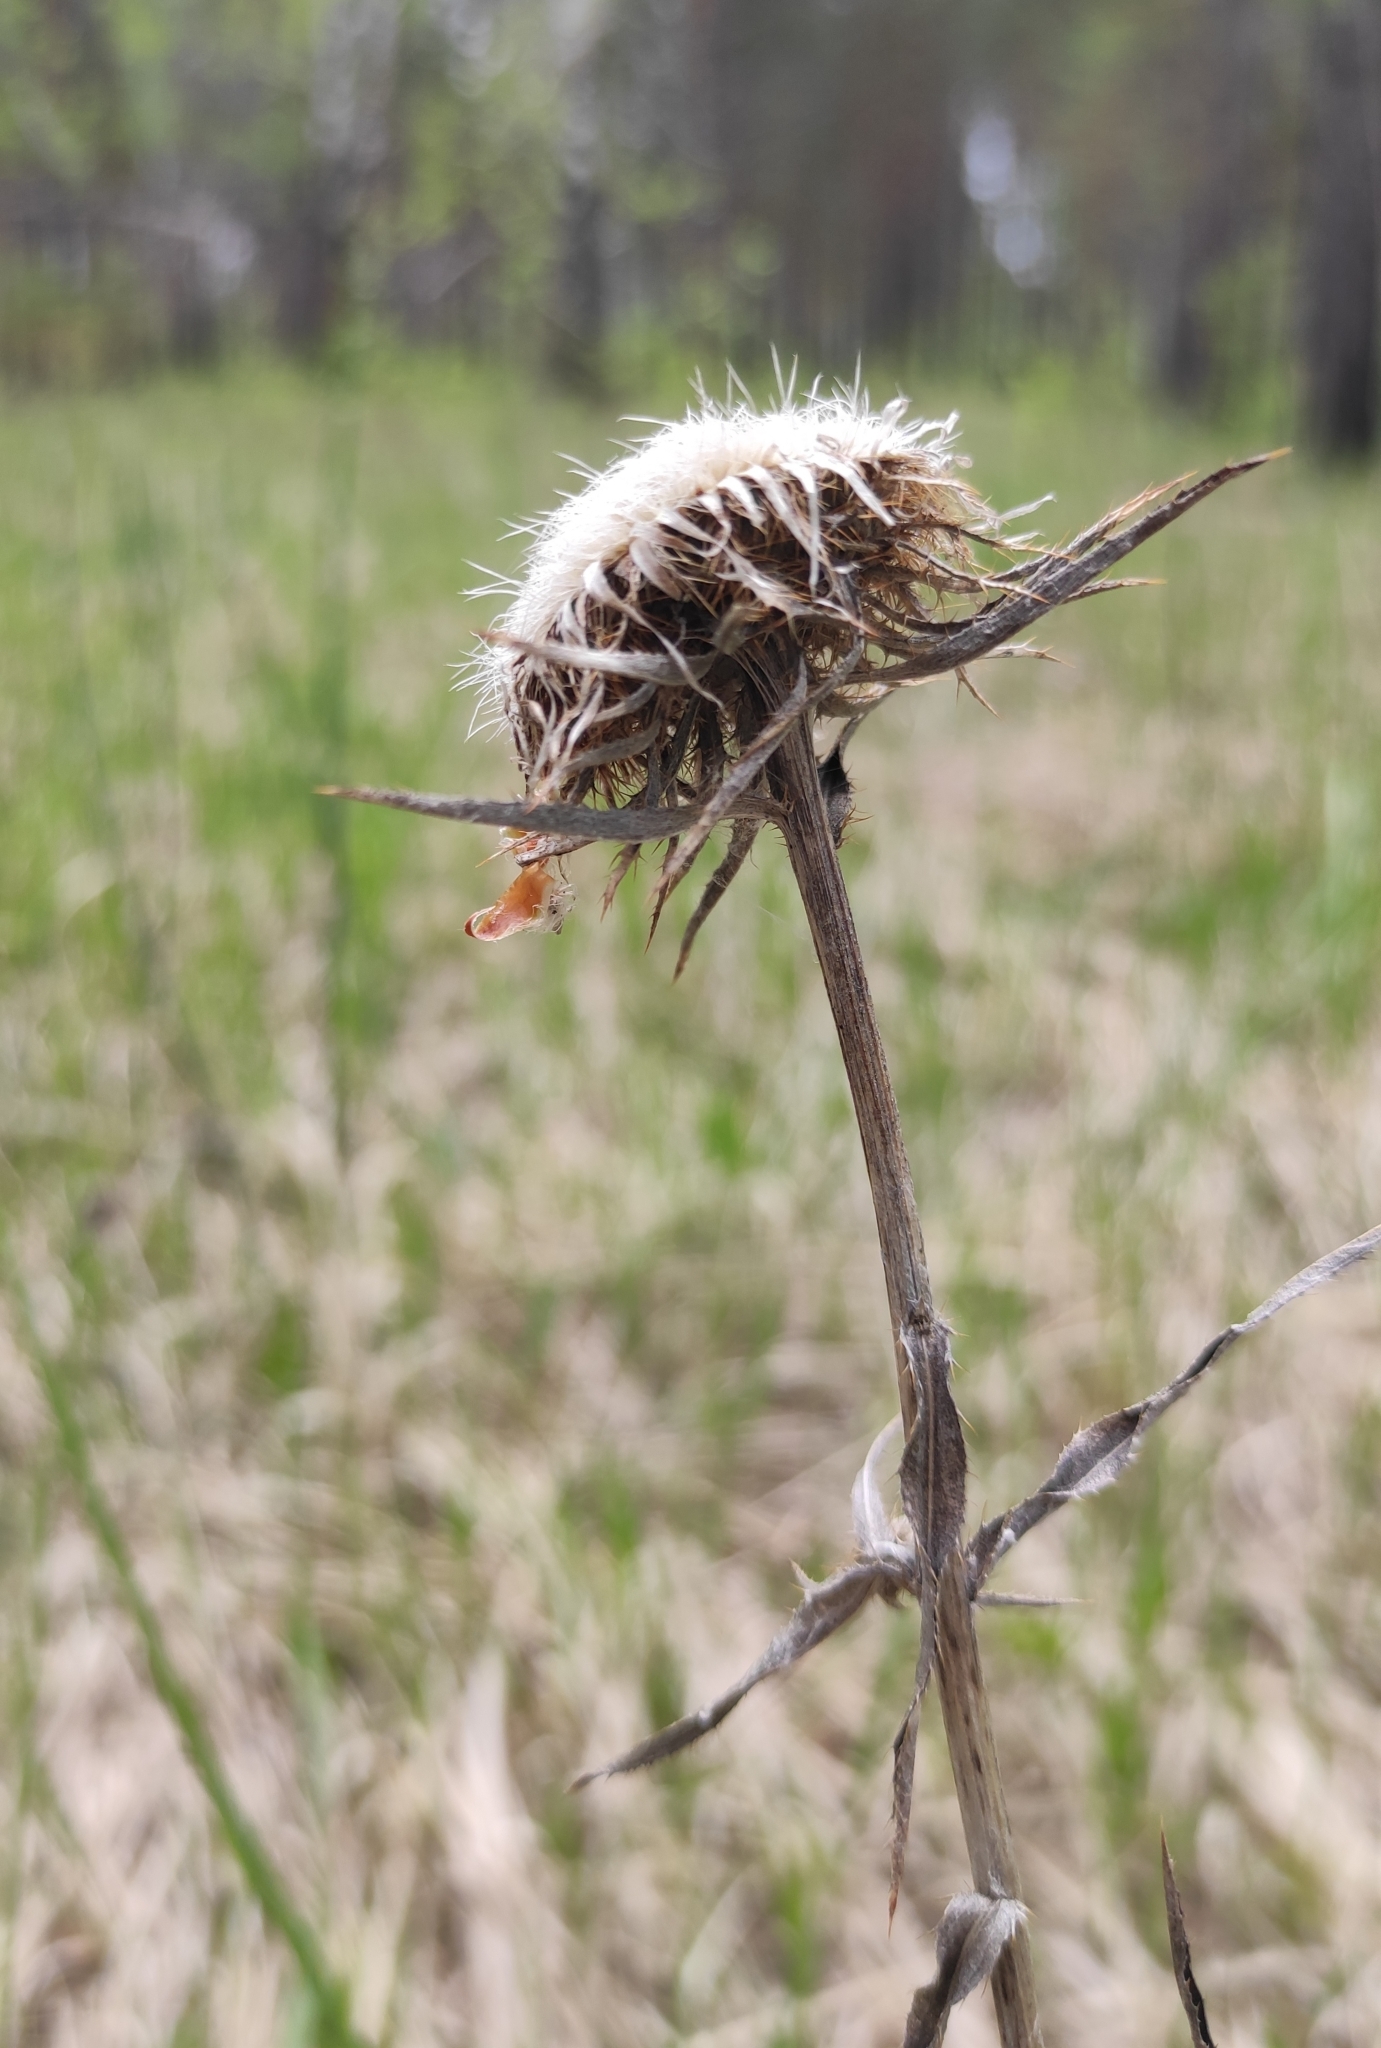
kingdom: Plantae
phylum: Tracheophyta
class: Magnoliopsida
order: Asterales
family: Asteraceae
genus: Carlina
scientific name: Carlina biebersteinii
